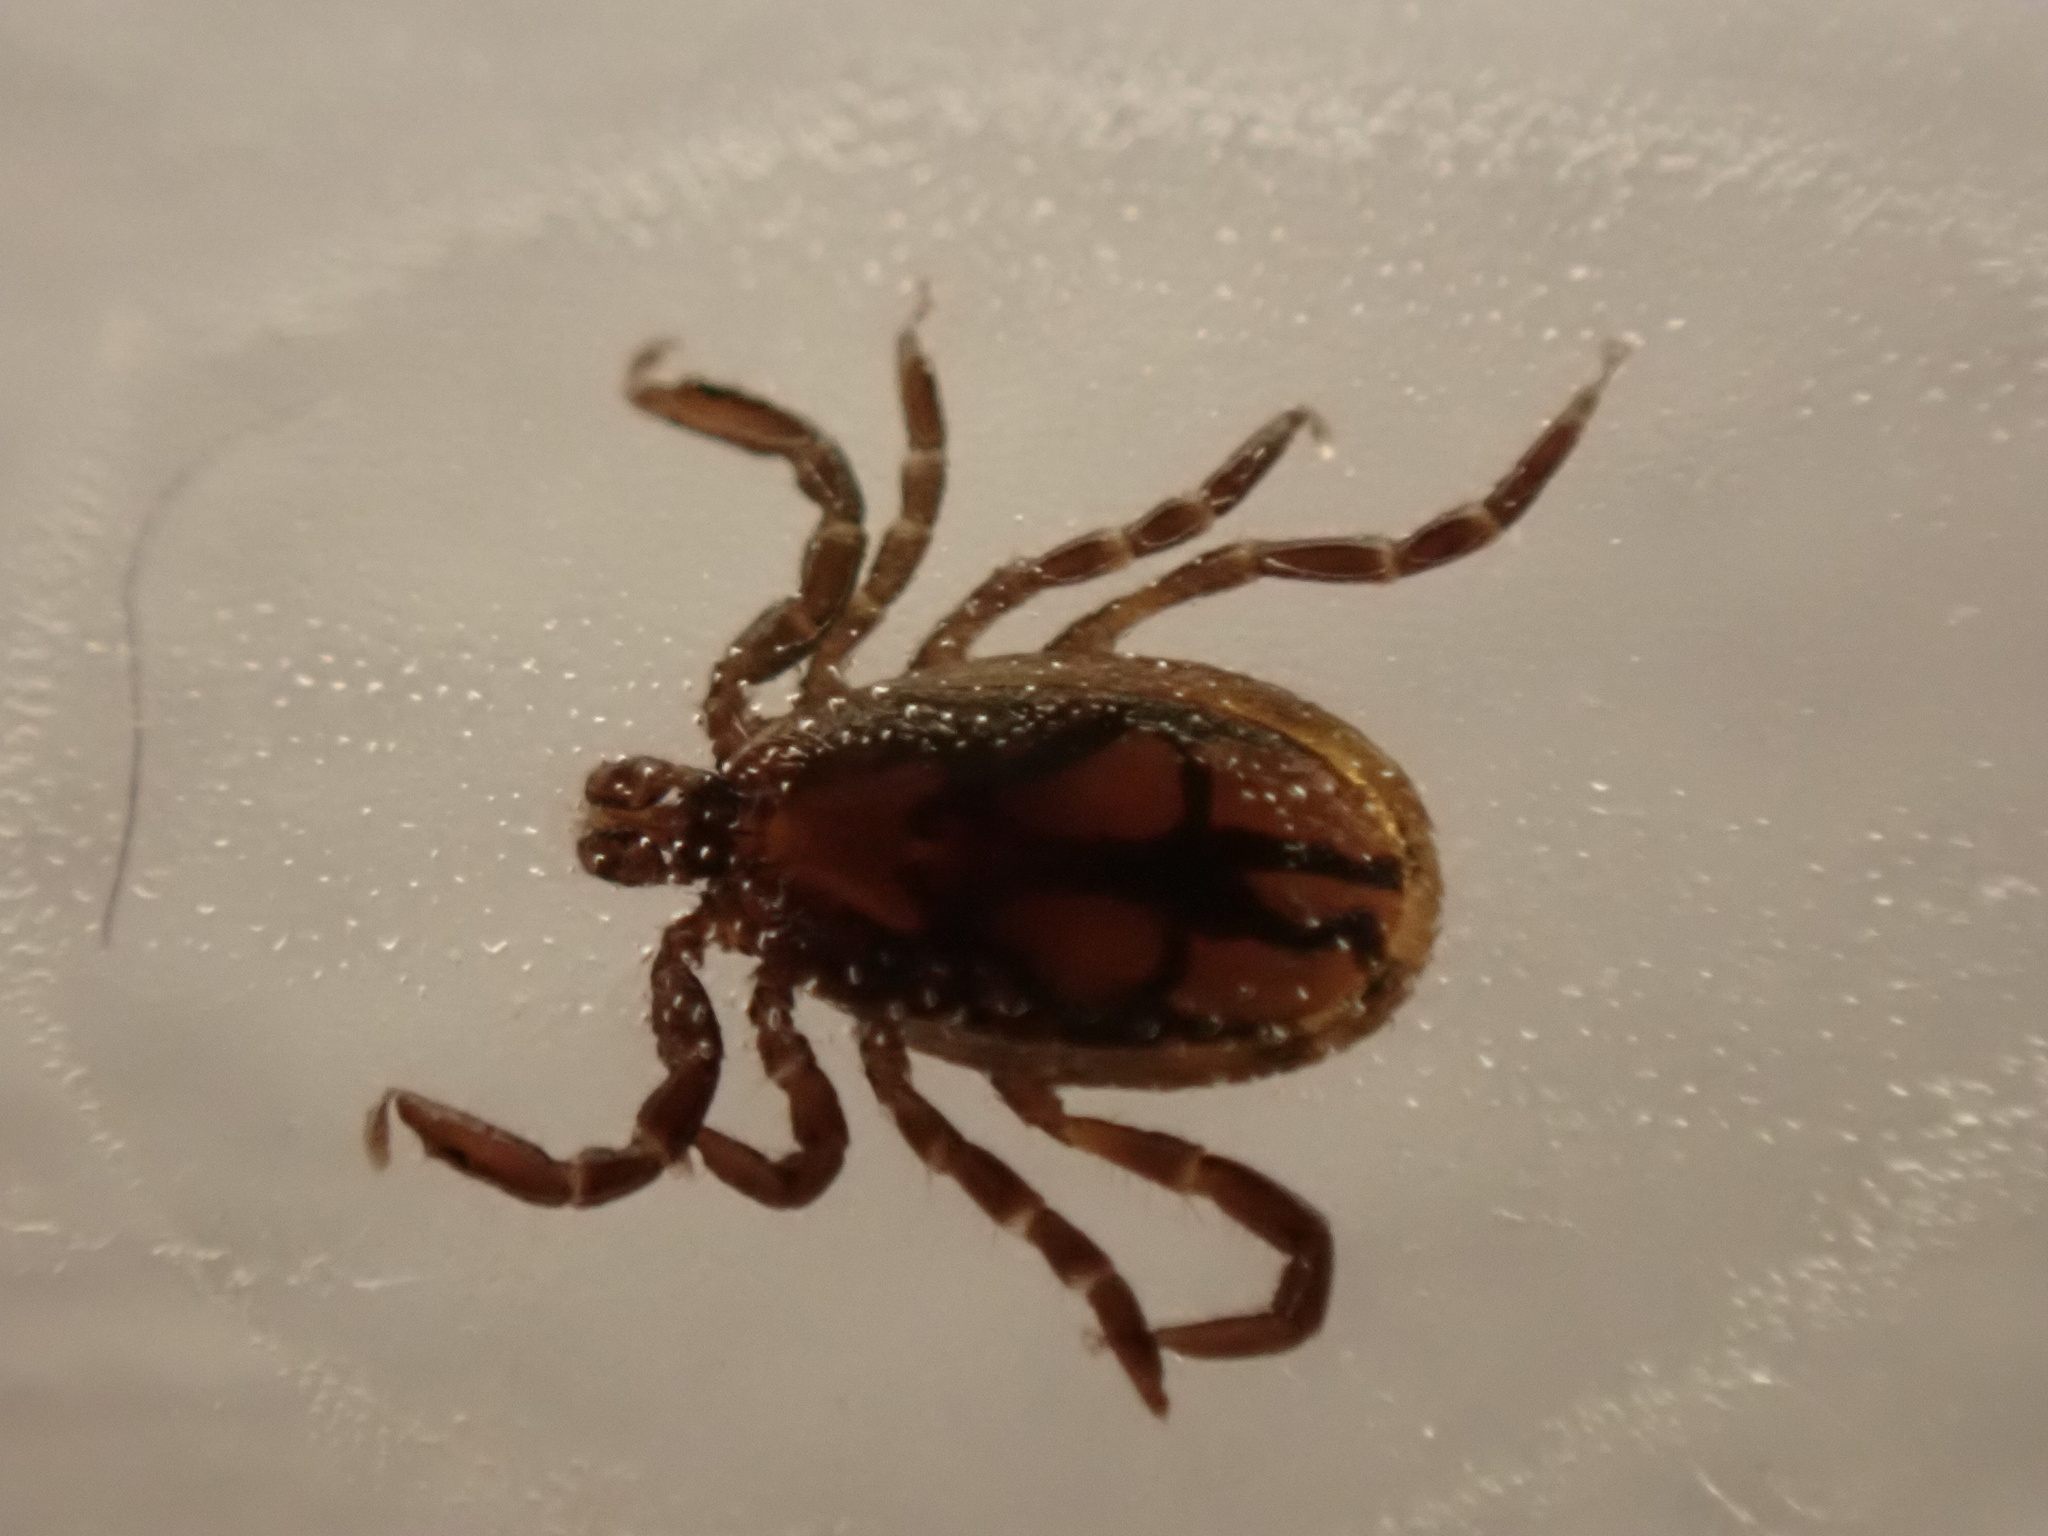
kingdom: Animalia
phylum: Arthropoda
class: Arachnida
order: Ixodida
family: Ixodidae
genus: Ixodes
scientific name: Ixodes scapularis
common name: Black legged tick
